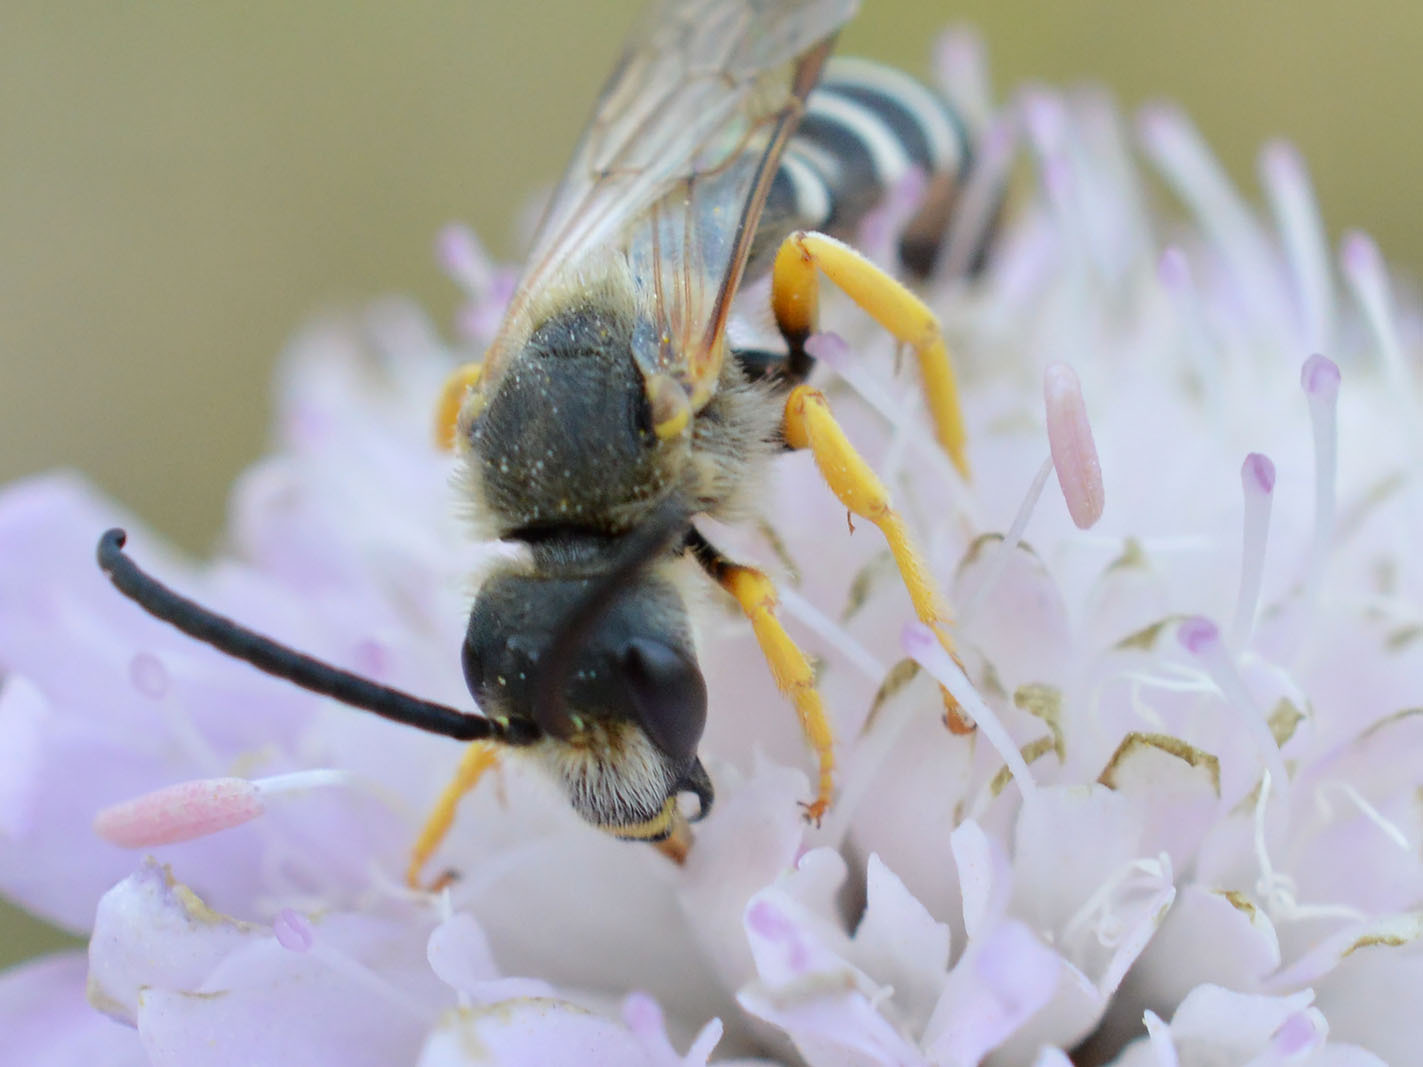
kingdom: Animalia
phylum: Arthropoda
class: Insecta
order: Hymenoptera
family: Halictidae
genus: Halictus
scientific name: Halictus scabiosae
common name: Great banded furrow bee
